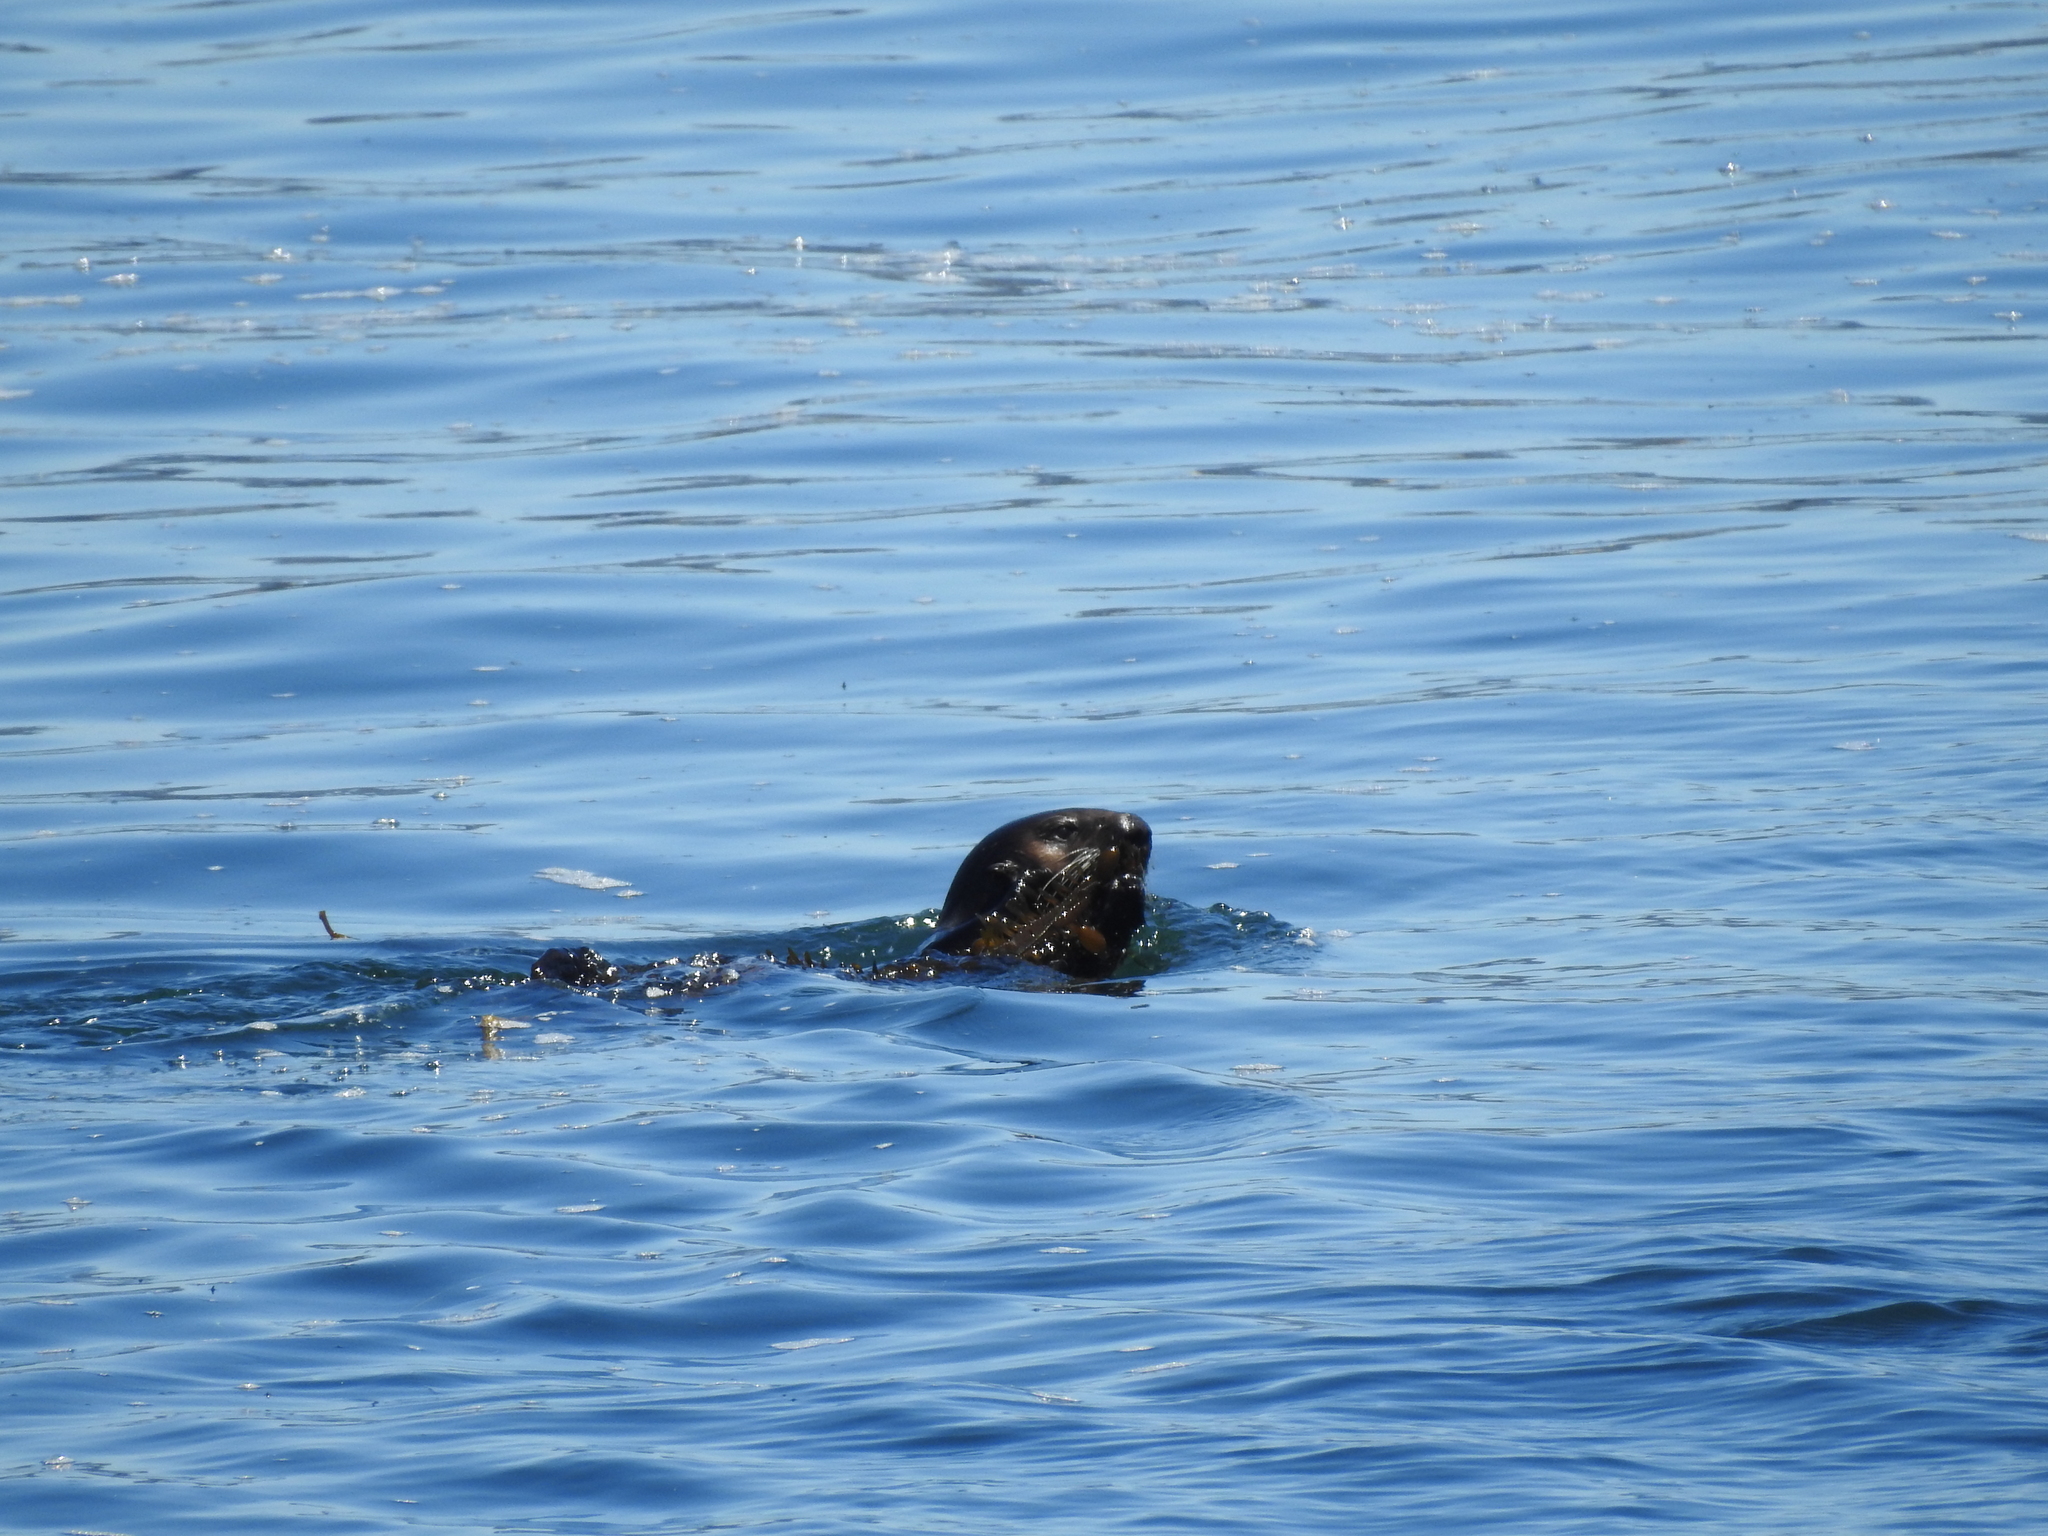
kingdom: Animalia
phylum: Chordata
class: Mammalia
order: Carnivora
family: Mustelidae
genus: Enhydra
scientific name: Enhydra lutris
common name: Sea otter
